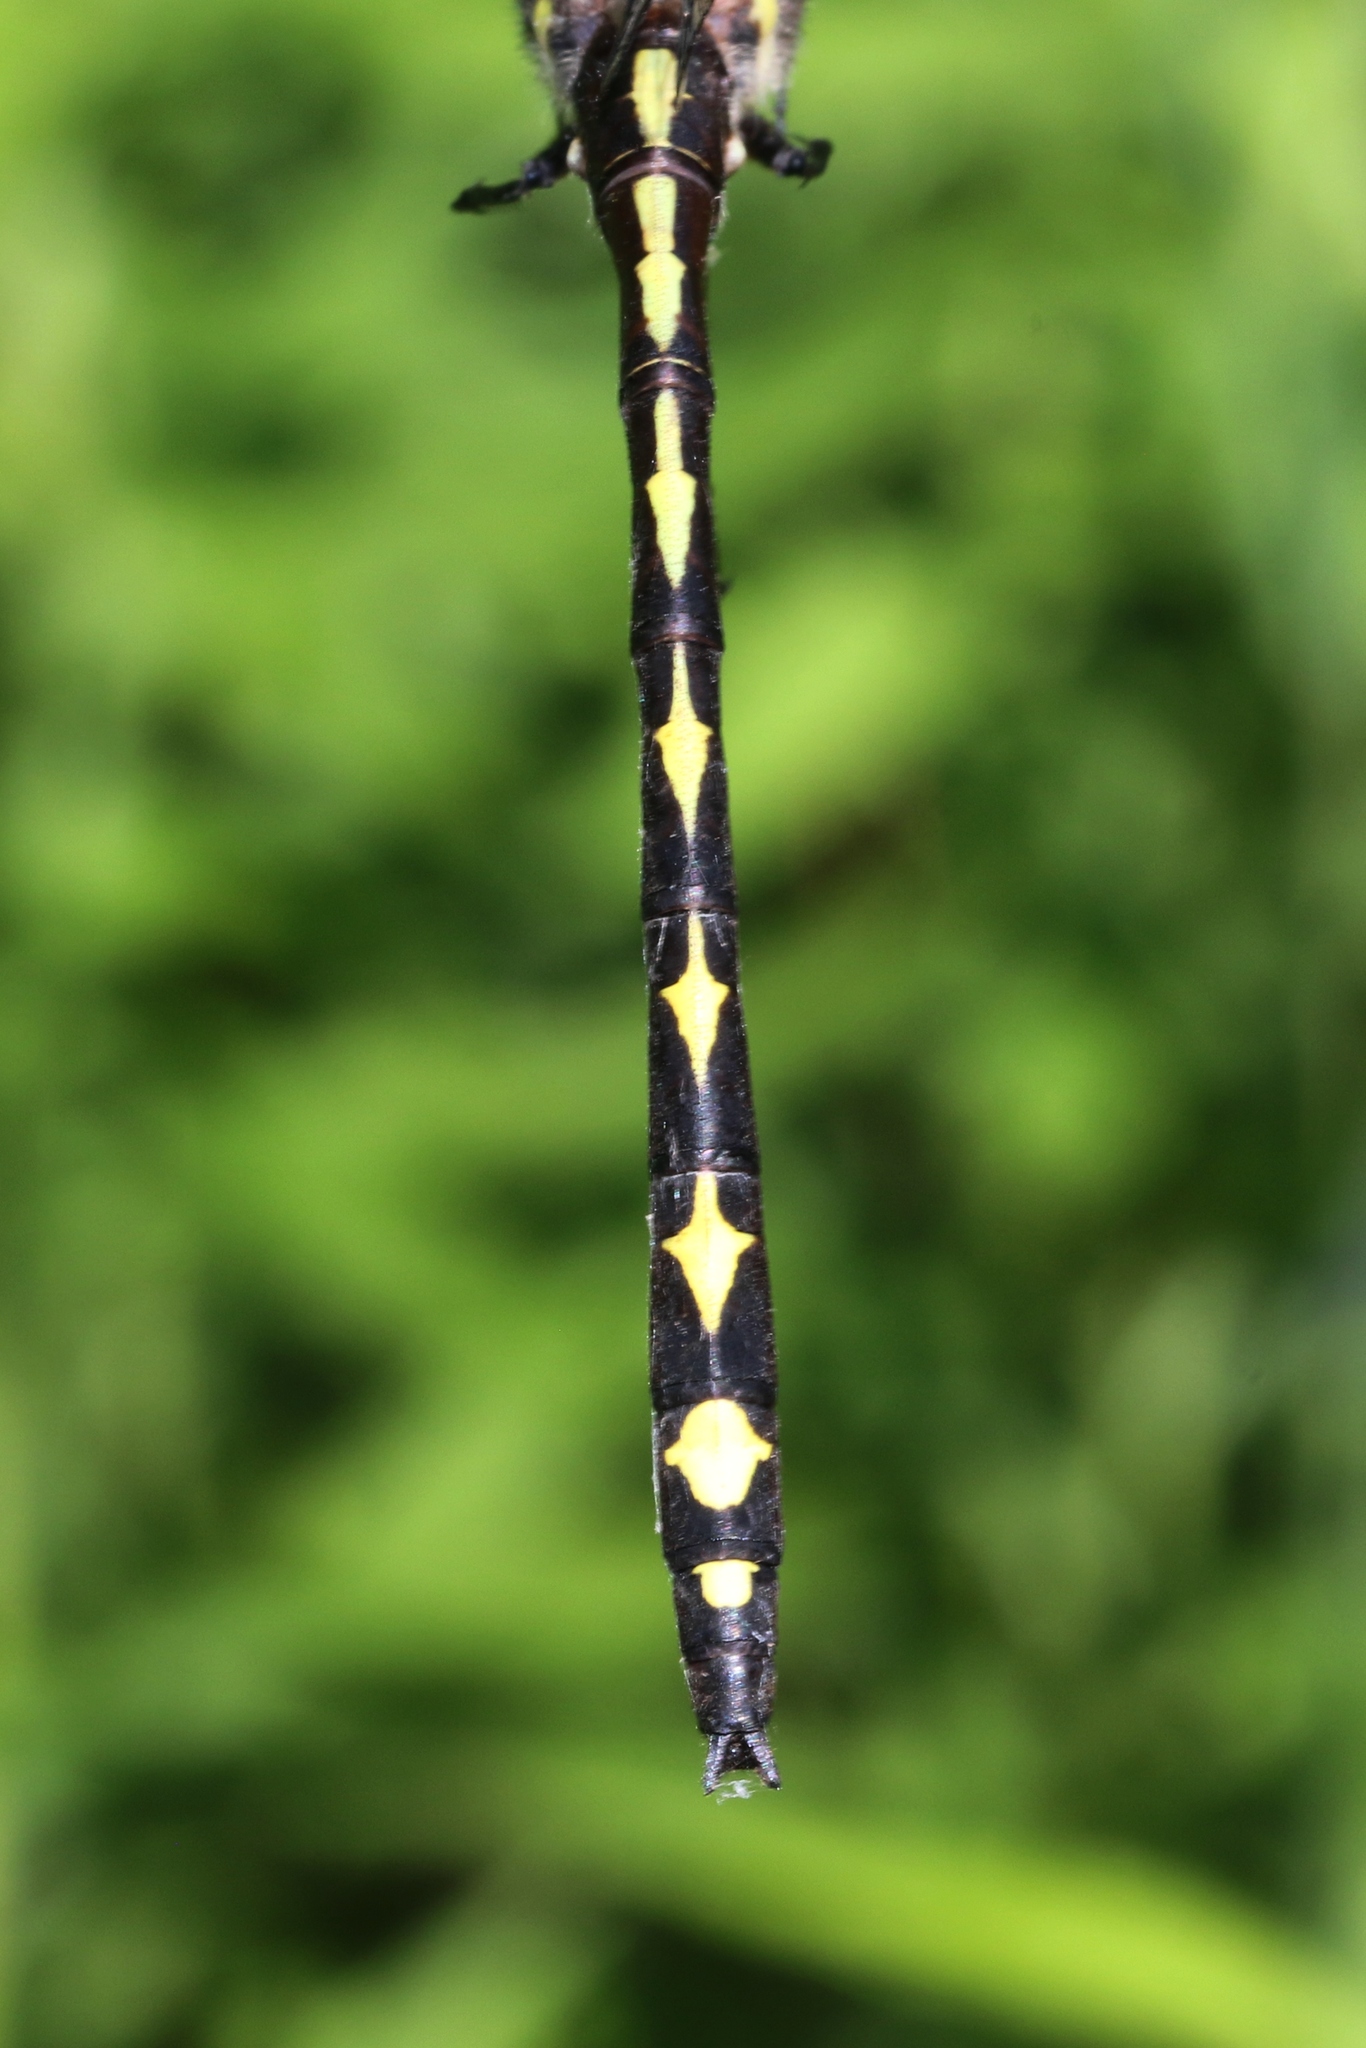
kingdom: Animalia
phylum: Arthropoda
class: Insecta
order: Odonata
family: Cordulegastridae
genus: Cordulegaster
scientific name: Cordulegaster obliqua
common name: Arrowhead spiketail
